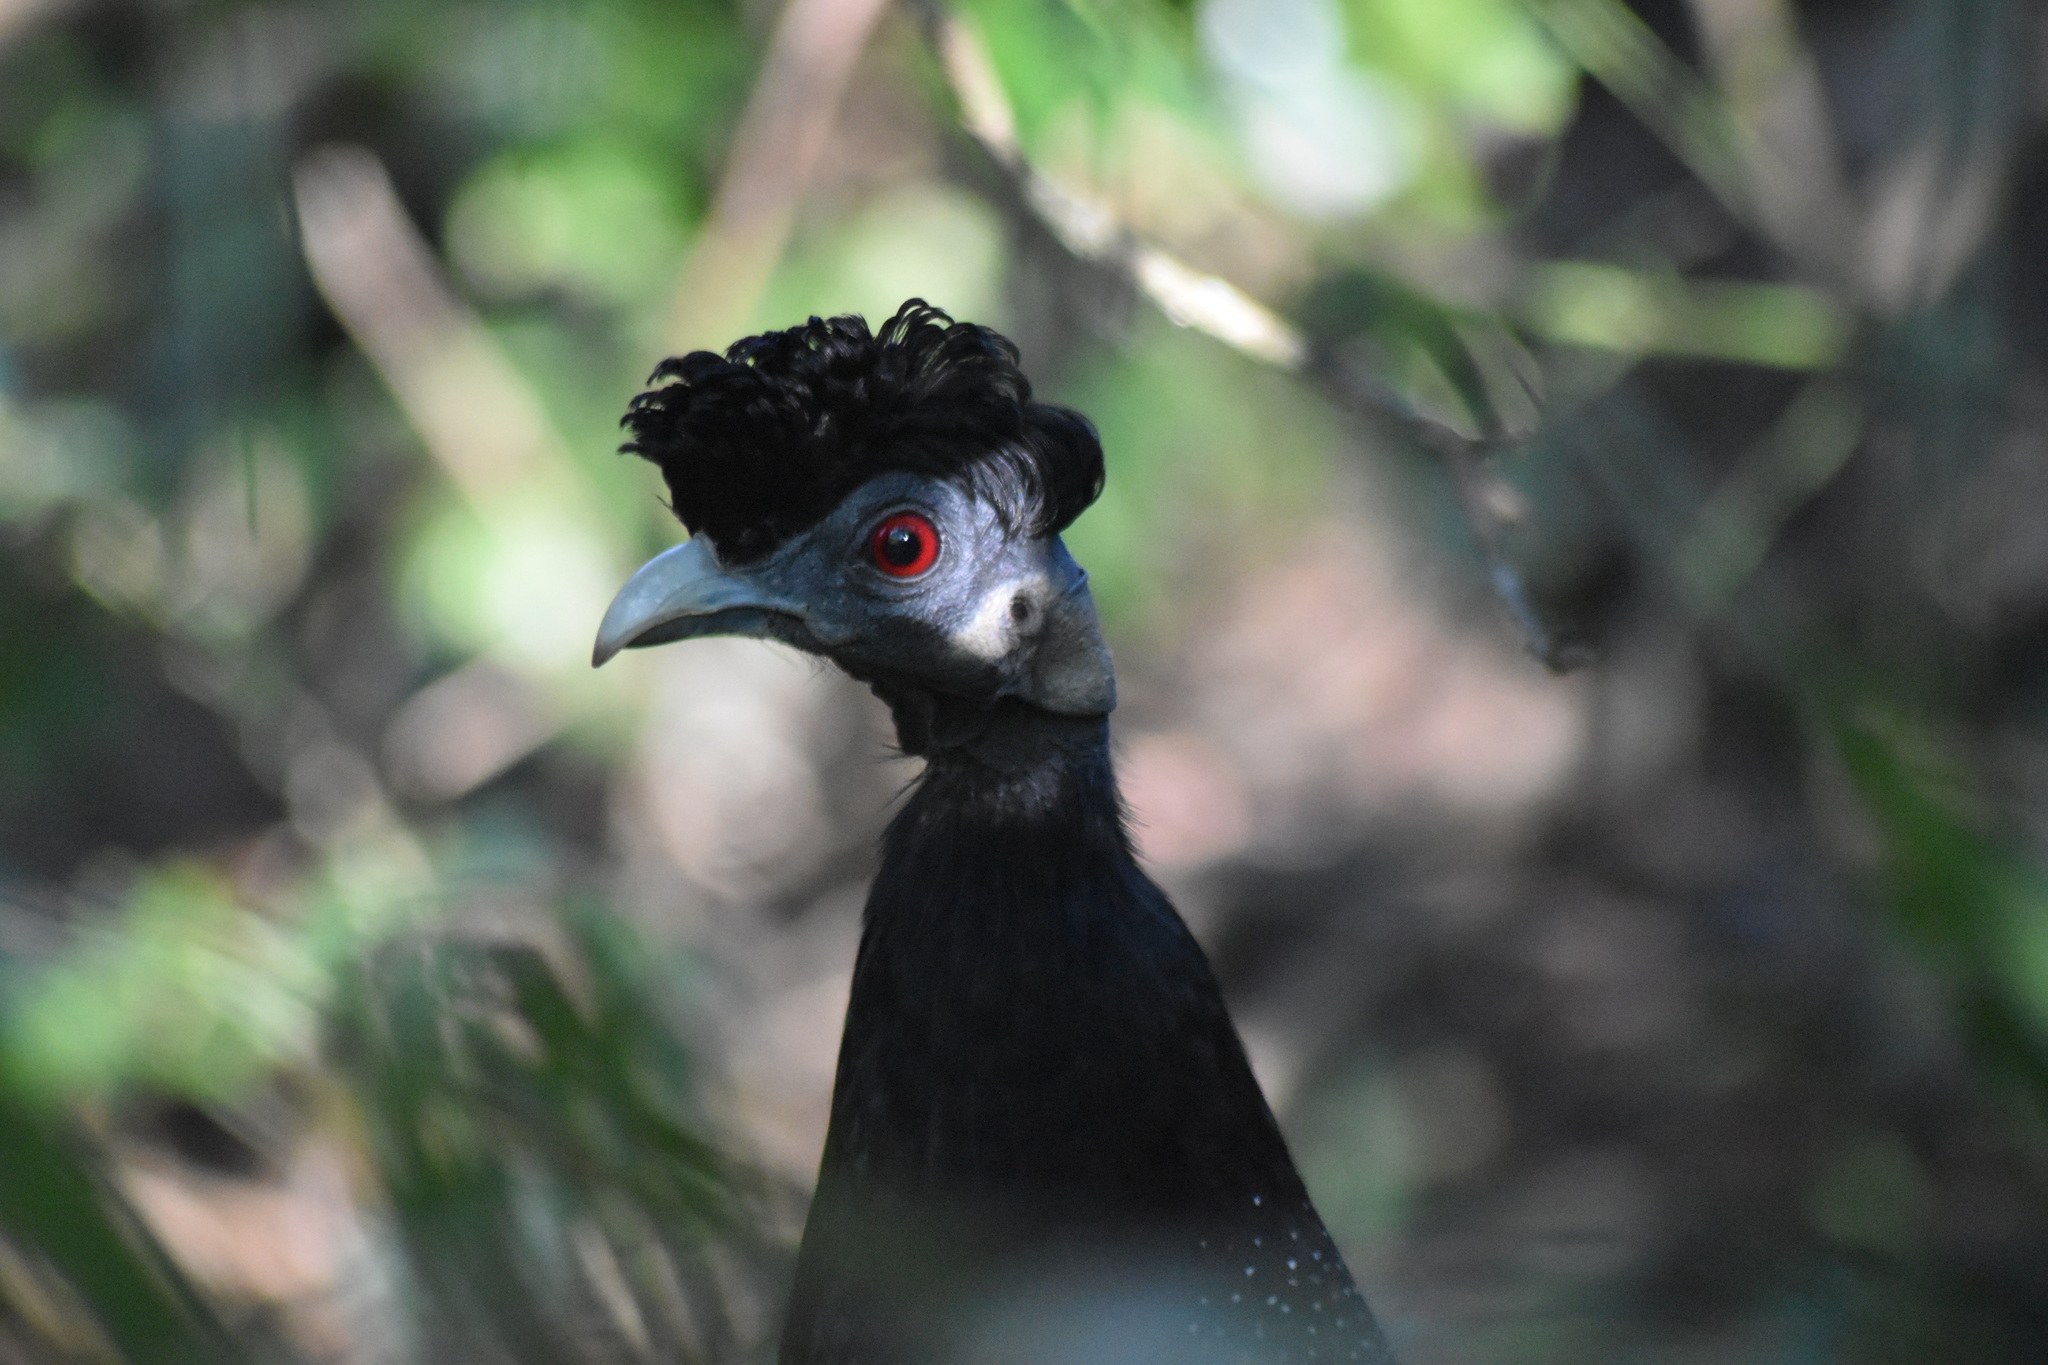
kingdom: Animalia
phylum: Chordata
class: Aves
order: Galliformes
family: Numididae
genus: Guttera
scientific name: Guttera pucherani
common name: Crested guineafowl
